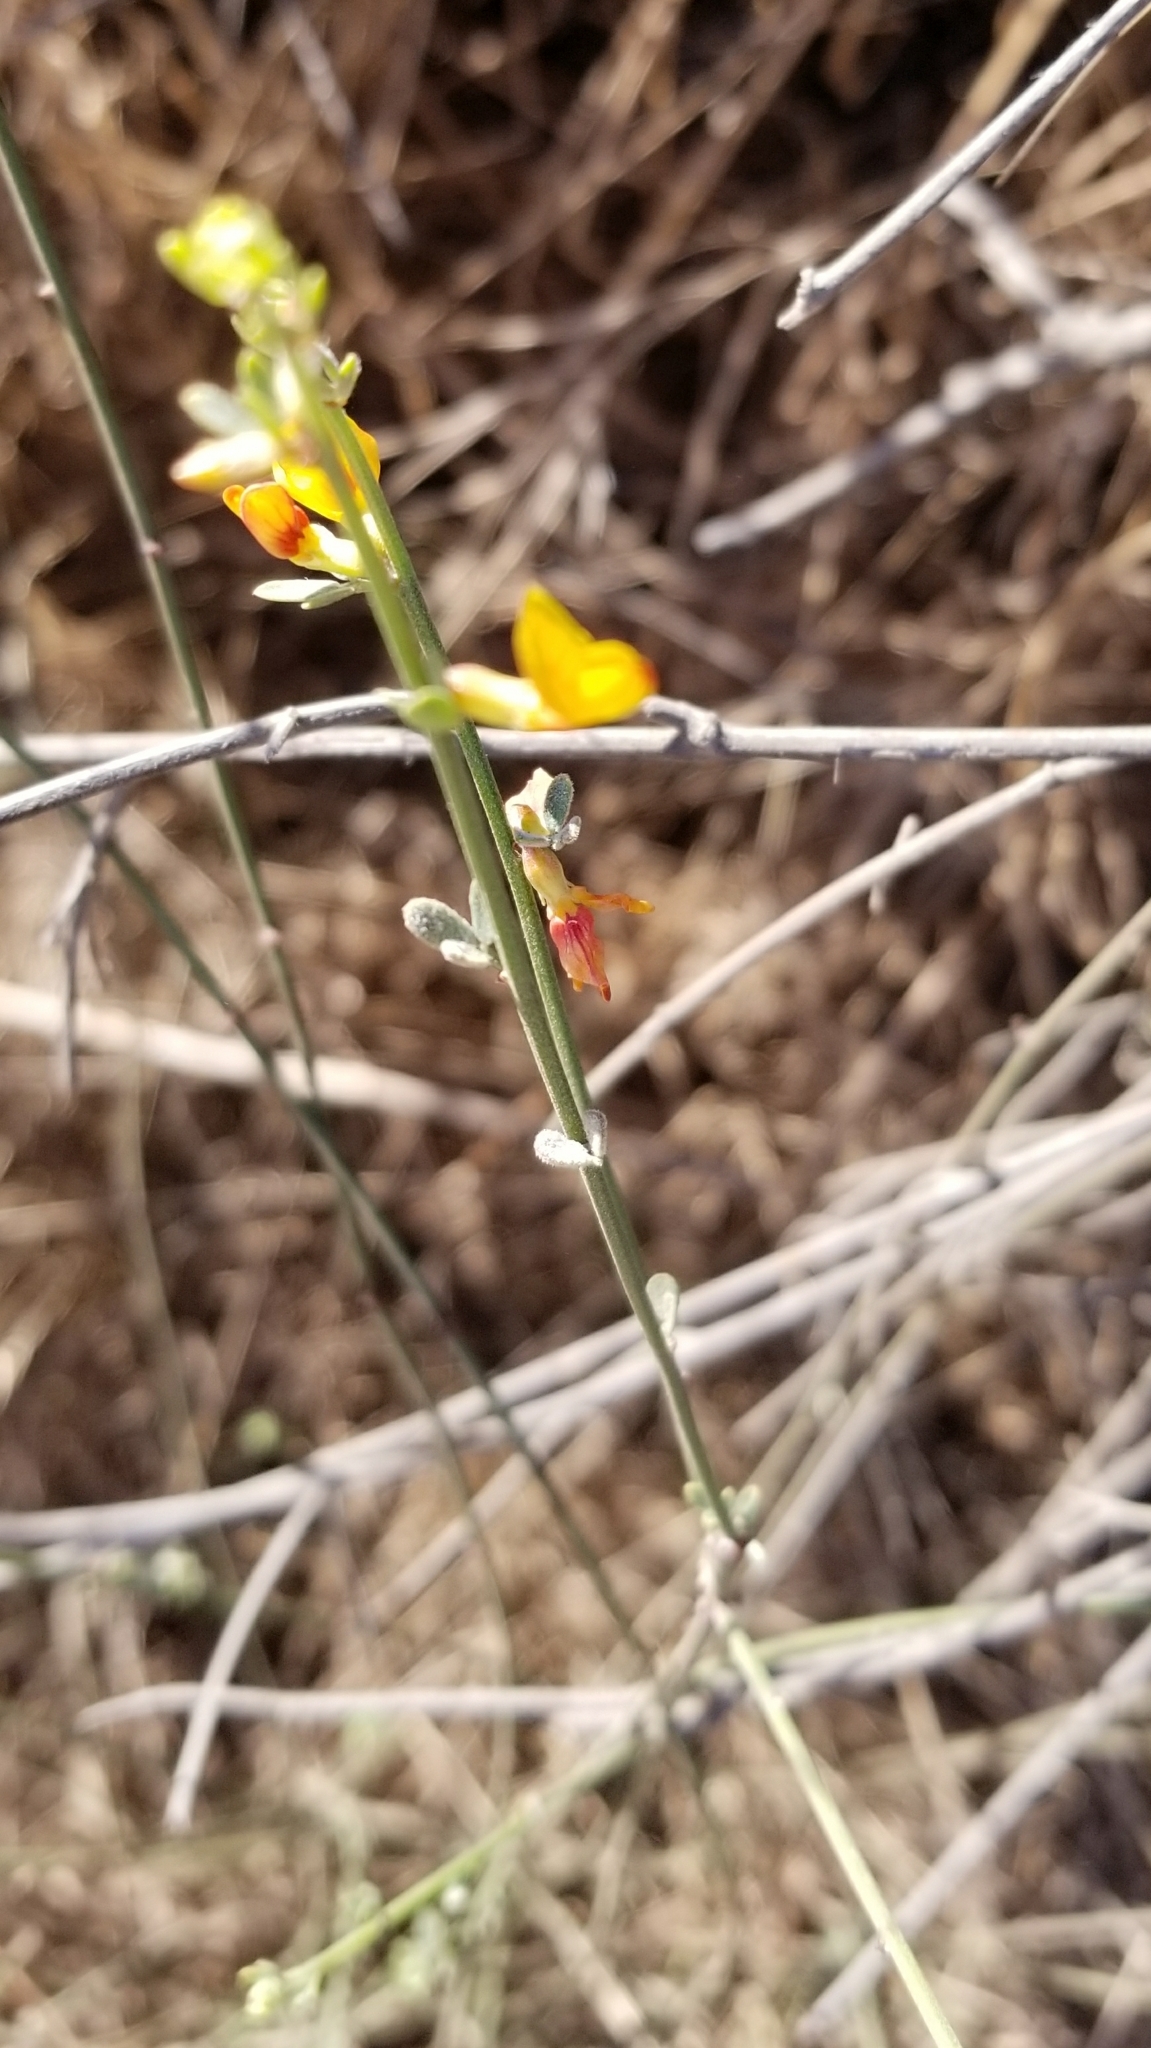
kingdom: Plantae
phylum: Tracheophyta
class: Magnoliopsida
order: Fabales
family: Fabaceae
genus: Acmispon
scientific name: Acmispon glaber
